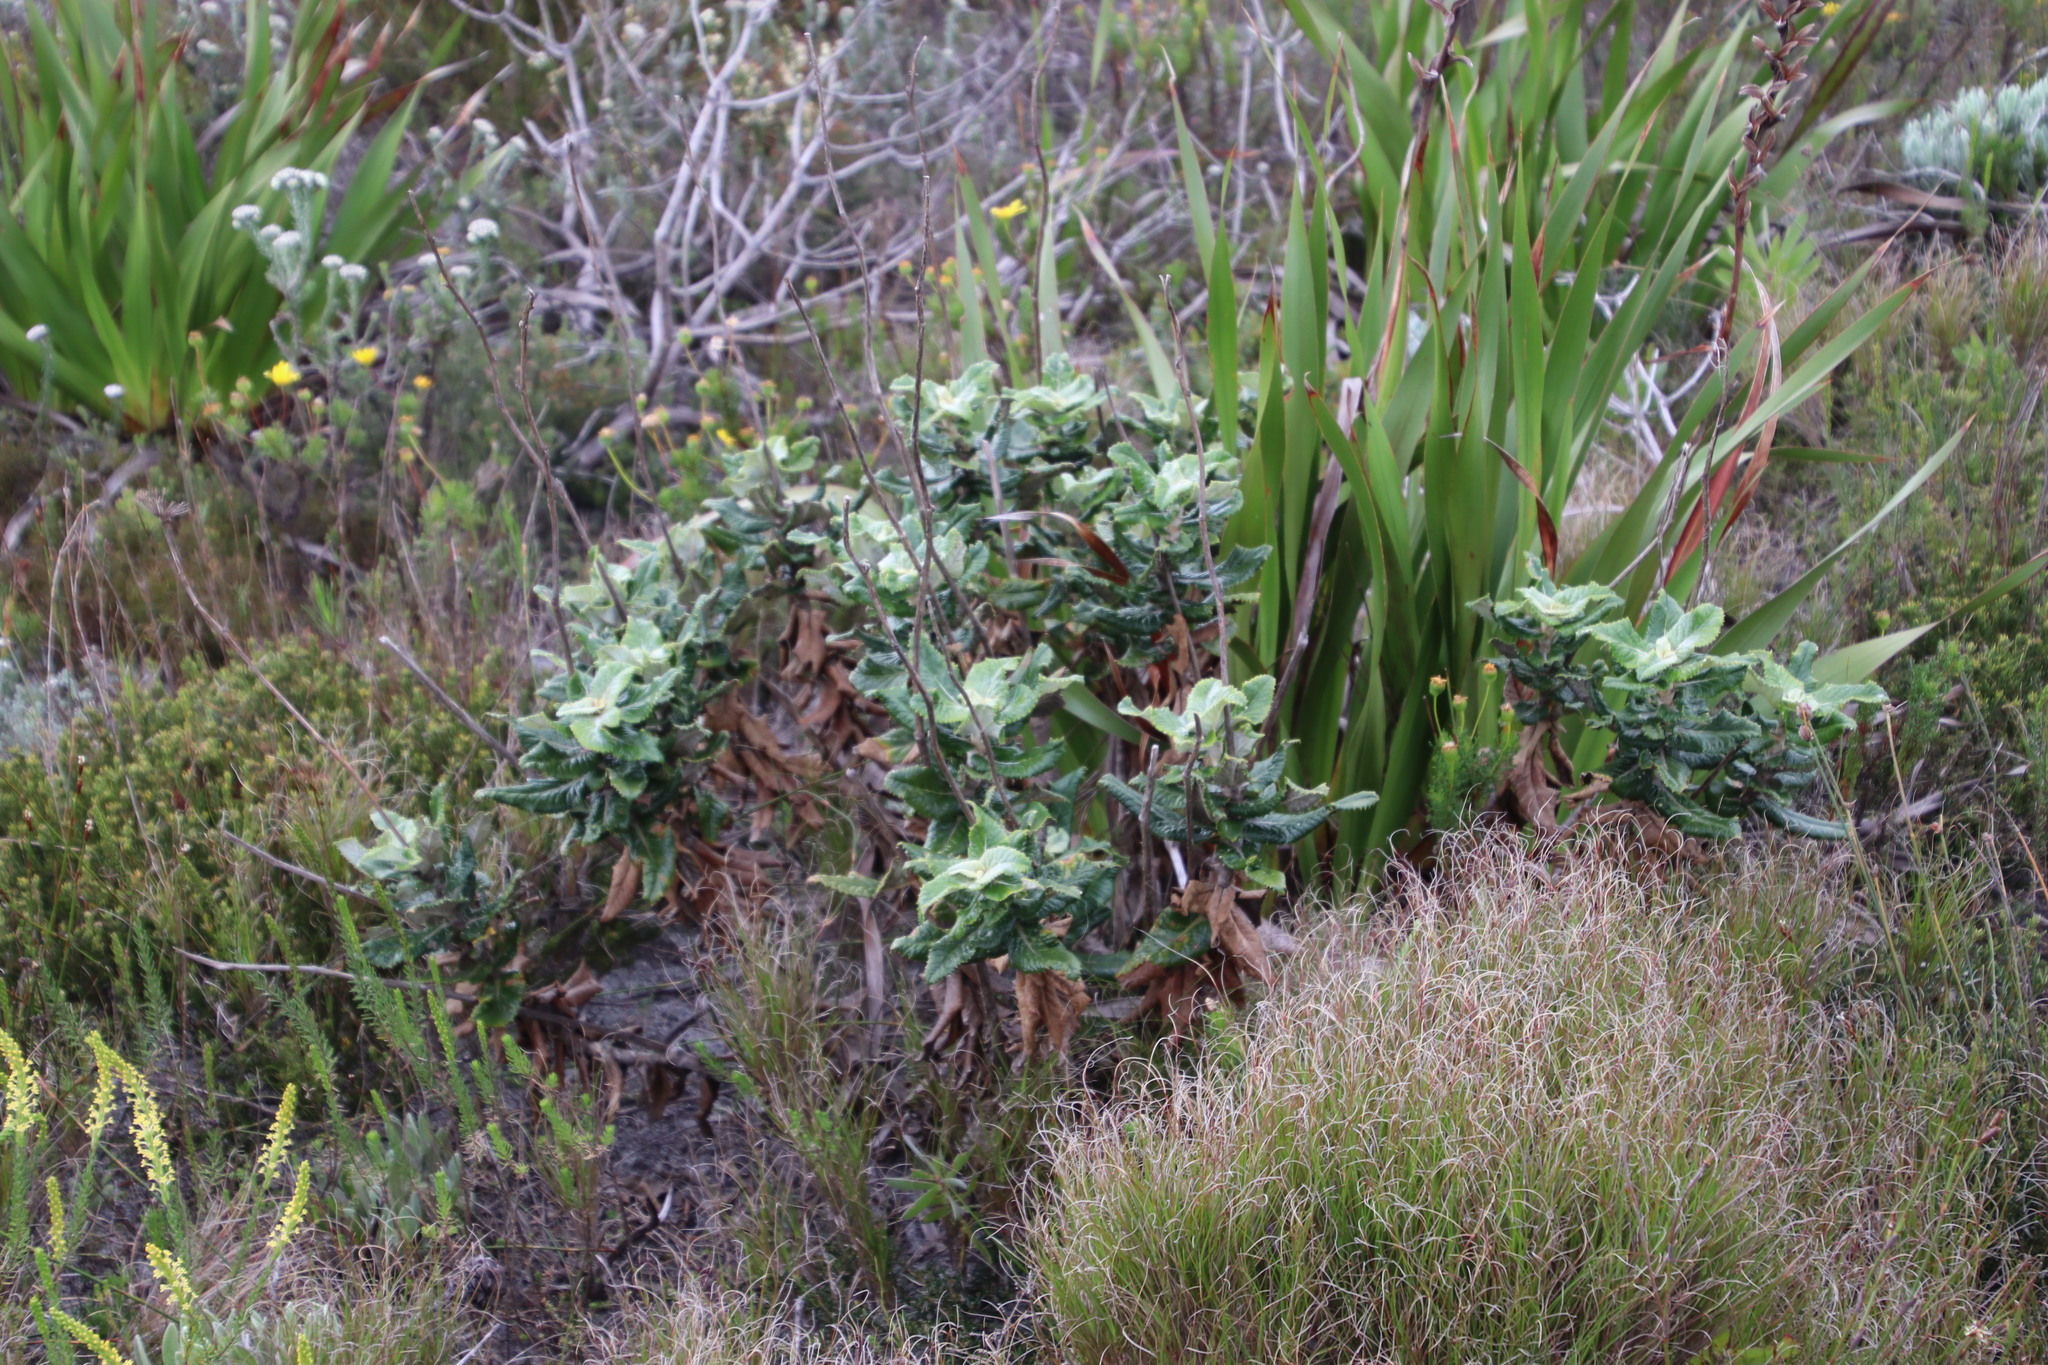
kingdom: Plantae
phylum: Tracheophyta
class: Magnoliopsida
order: Apiales
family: Apiaceae
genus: Hermas
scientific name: Hermas villosa
